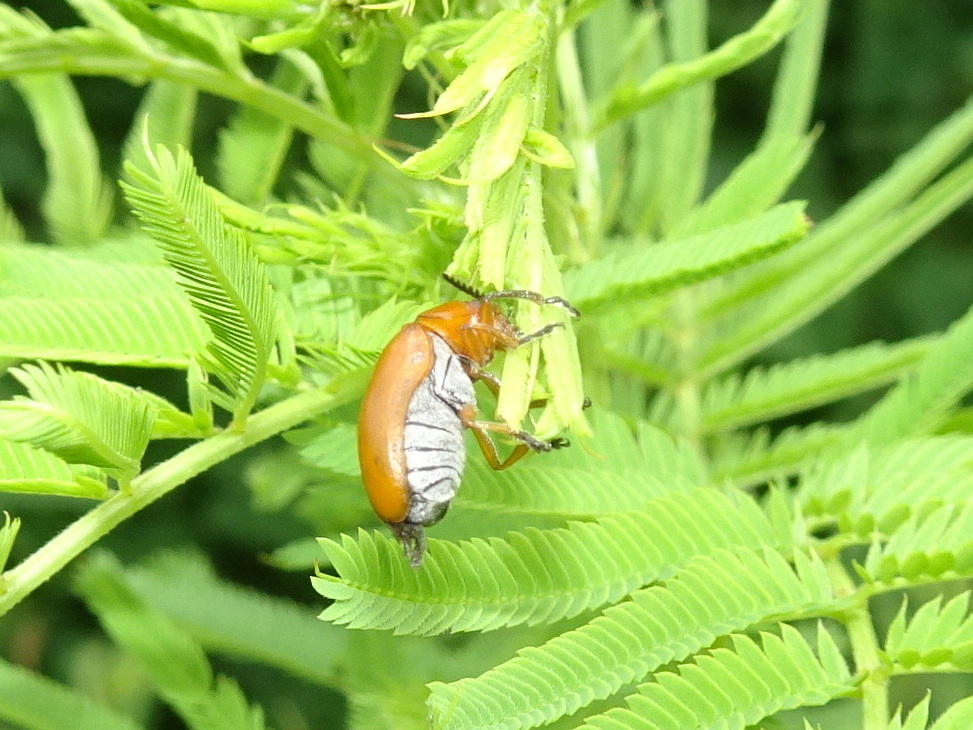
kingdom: Animalia
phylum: Arthropoda
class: Insecta
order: Coleoptera
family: Chrysomelidae
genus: Anomoea
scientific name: Anomoea laticlavia
